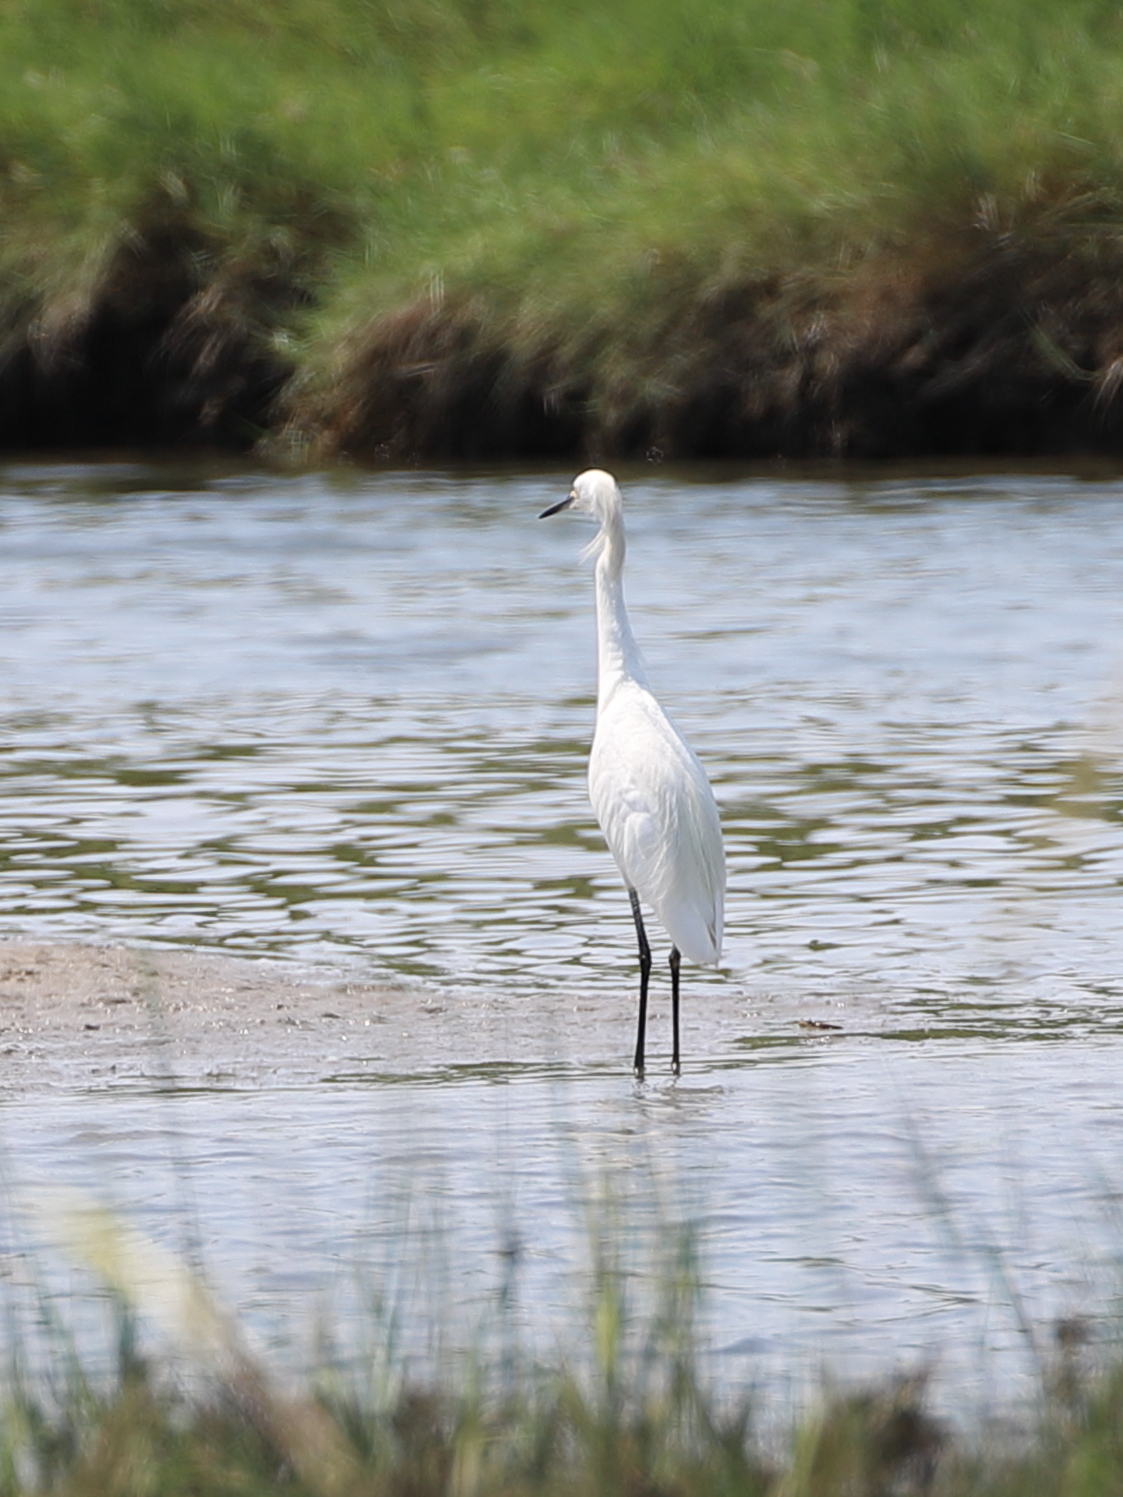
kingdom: Animalia
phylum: Chordata
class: Aves
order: Pelecaniformes
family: Ardeidae
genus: Egretta
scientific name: Egretta thula
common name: Snowy egret
